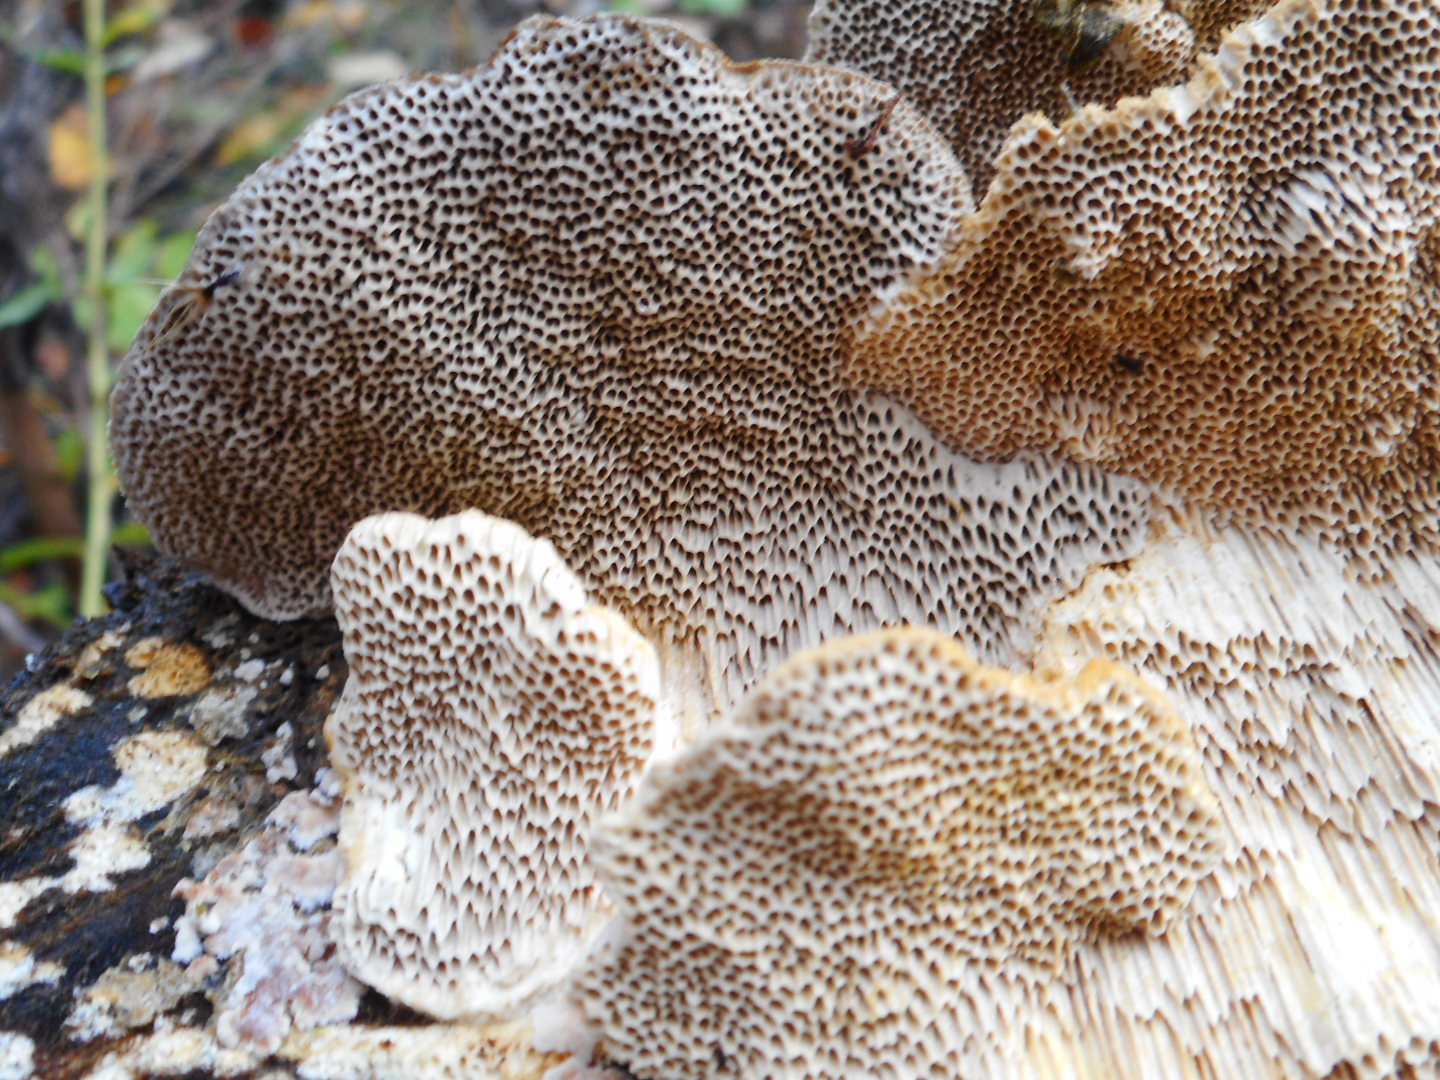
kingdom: Fungi
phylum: Basidiomycota
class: Agaricomycetes
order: Polyporales
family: Polyporaceae
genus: Trametes
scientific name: Trametes trogii
